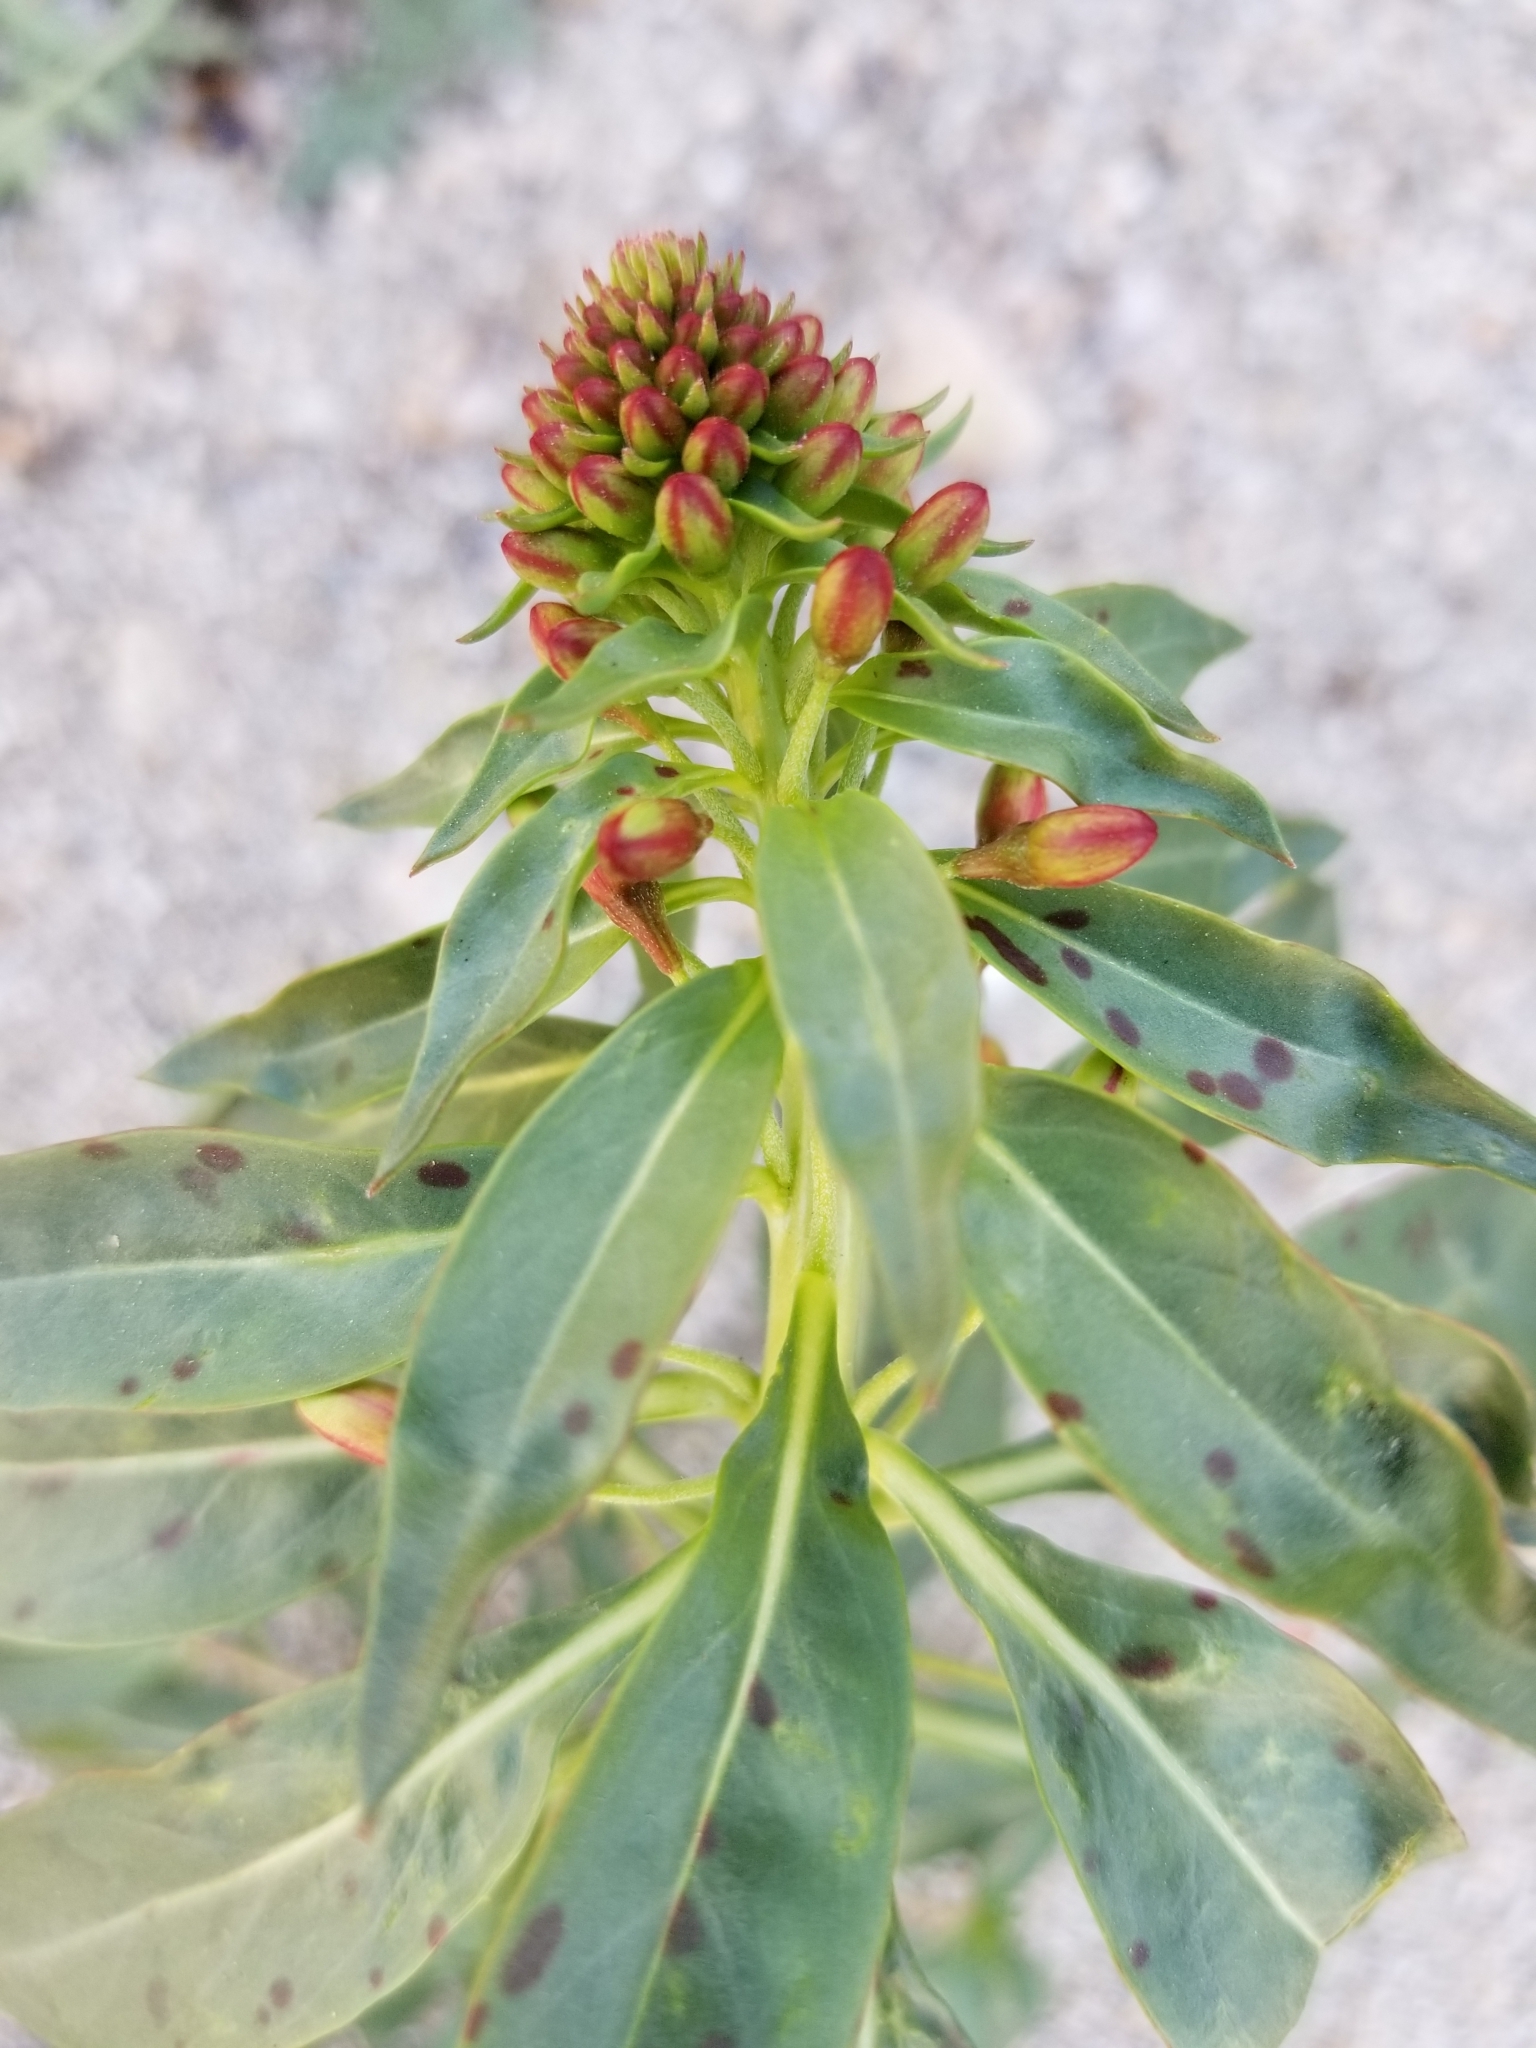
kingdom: Plantae
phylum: Tracheophyta
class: Magnoliopsida
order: Myrtales
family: Onagraceae
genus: Eremothera
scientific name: Eremothera boothii
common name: Booth's evening primrose
